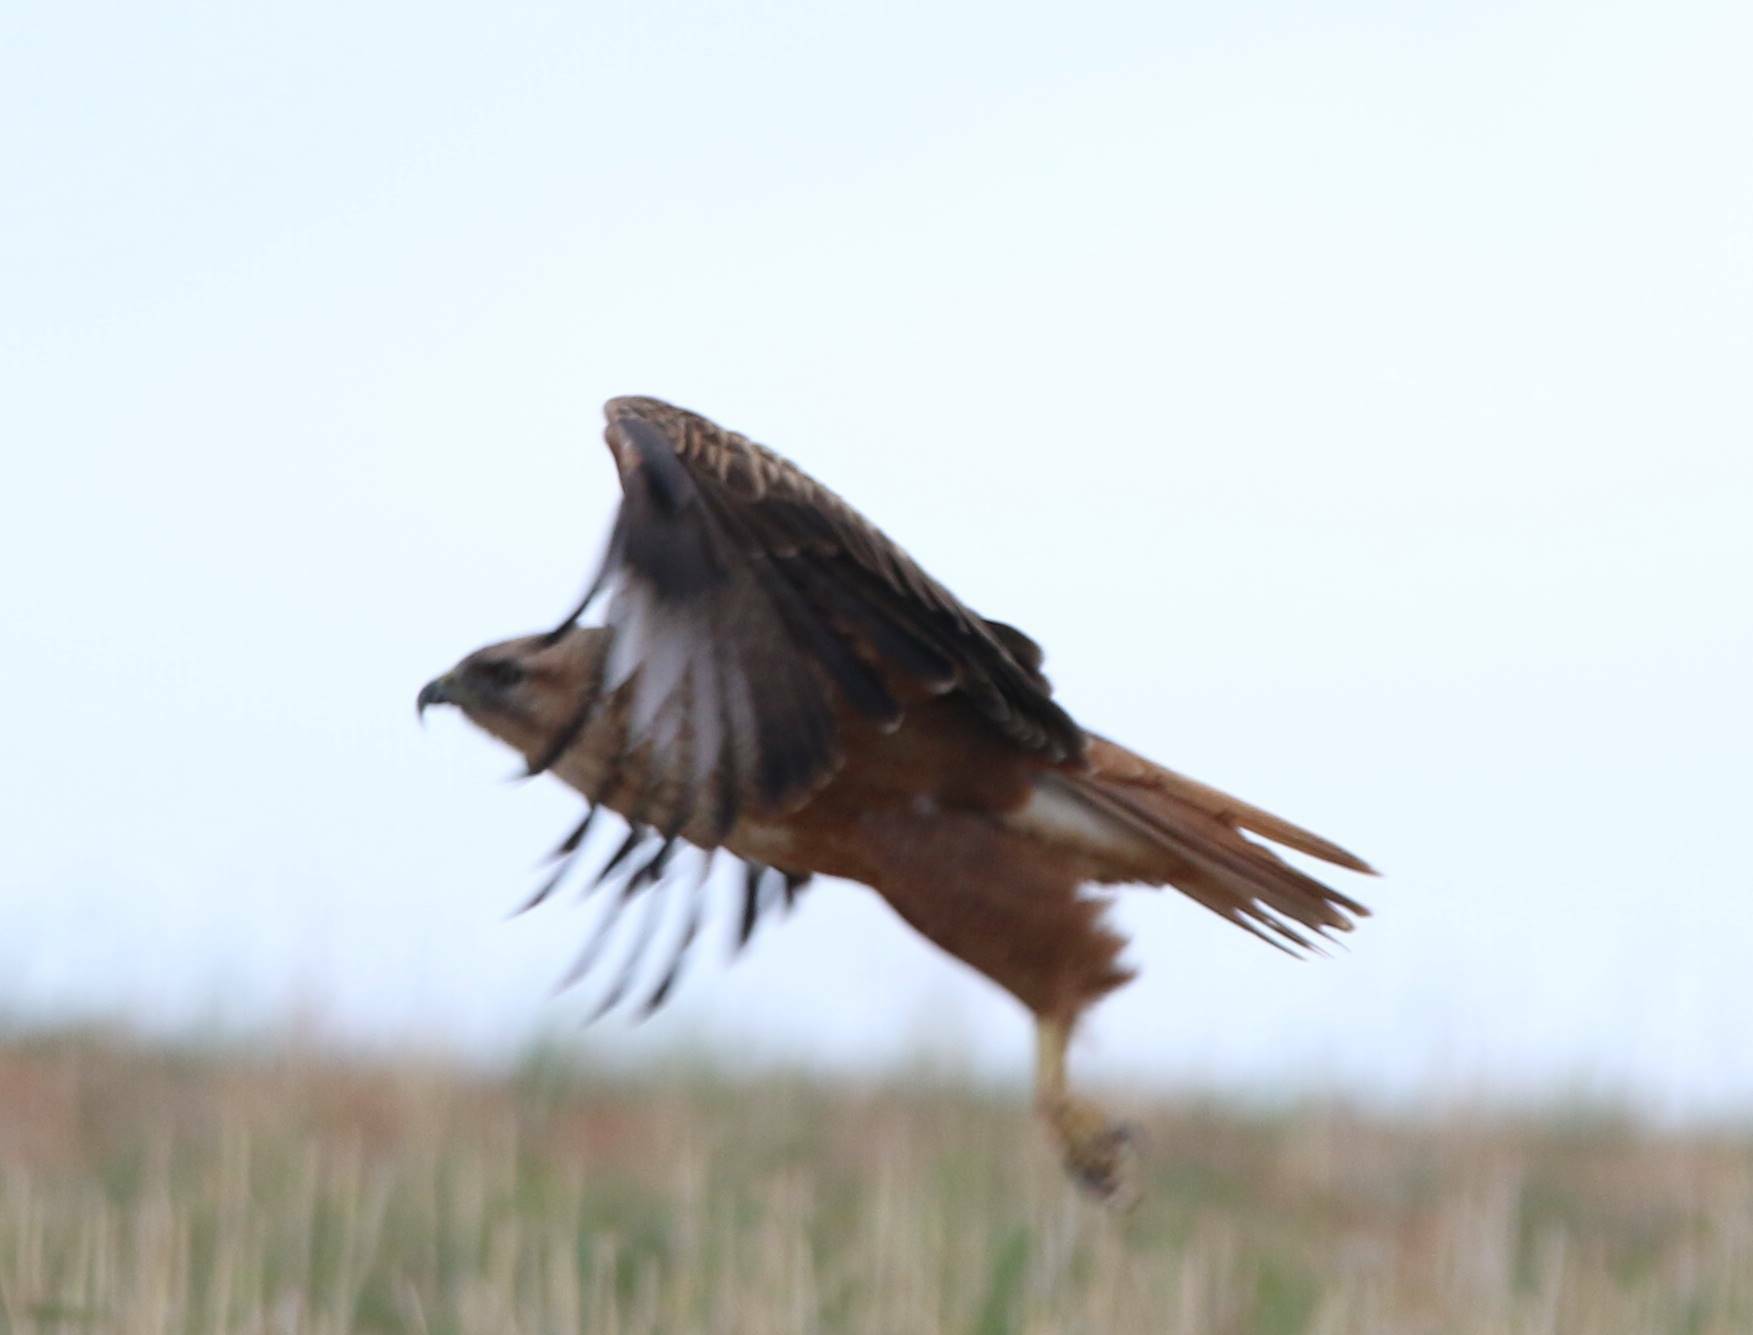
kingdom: Animalia
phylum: Chordata
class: Aves
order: Accipitriformes
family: Accipitridae
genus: Buteo
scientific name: Buteo rufinus
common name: Long-legged buzzard
